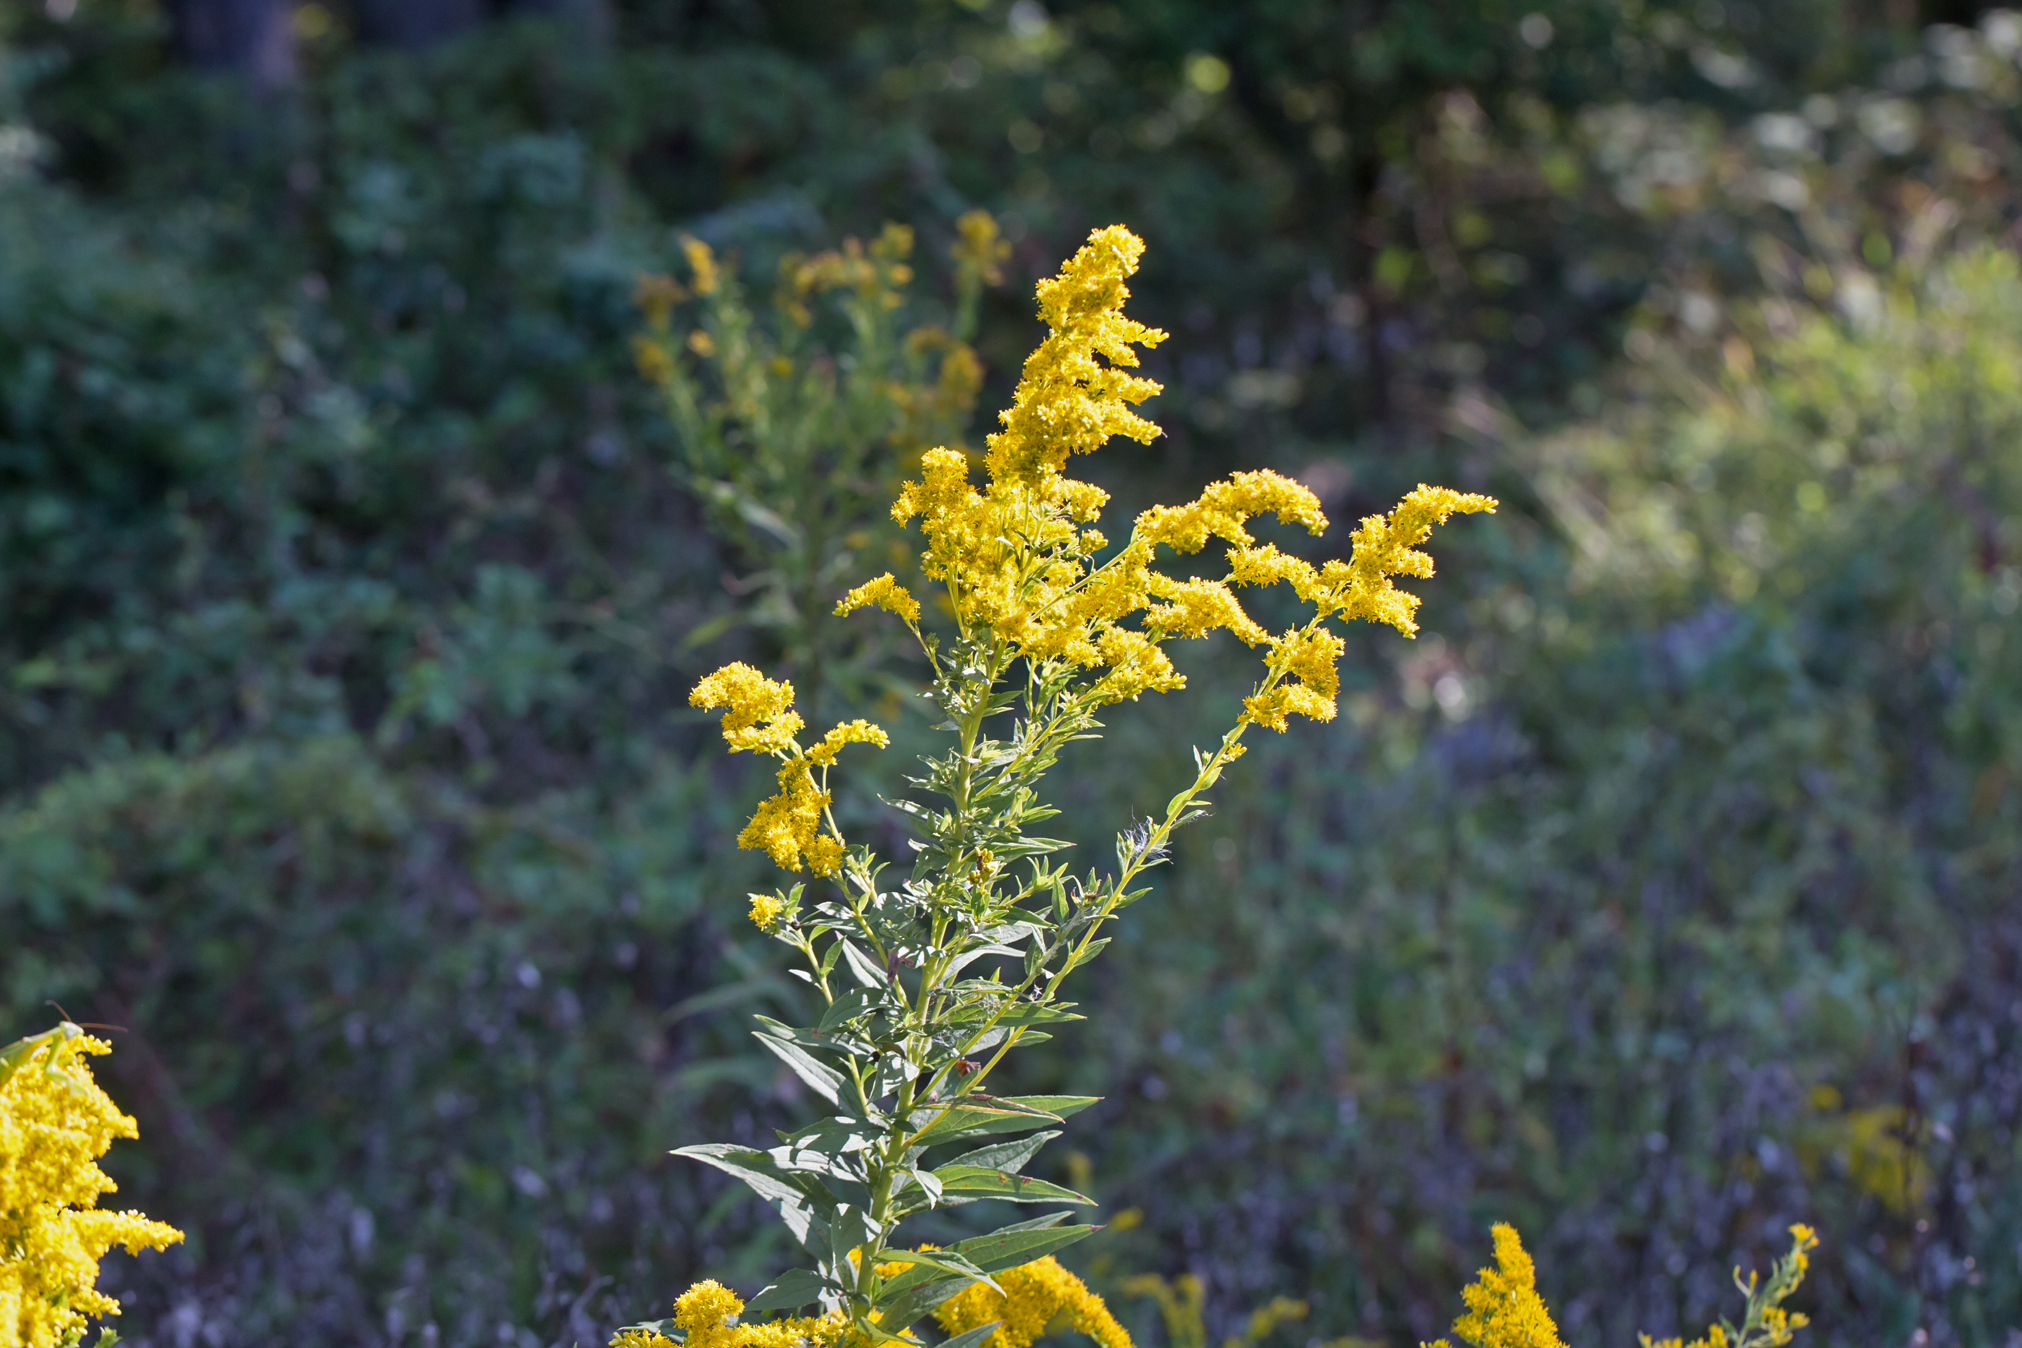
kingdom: Plantae
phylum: Tracheophyta
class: Magnoliopsida
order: Asterales
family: Asteraceae
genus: Solidago
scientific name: Solidago altissima
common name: Late goldenrod
